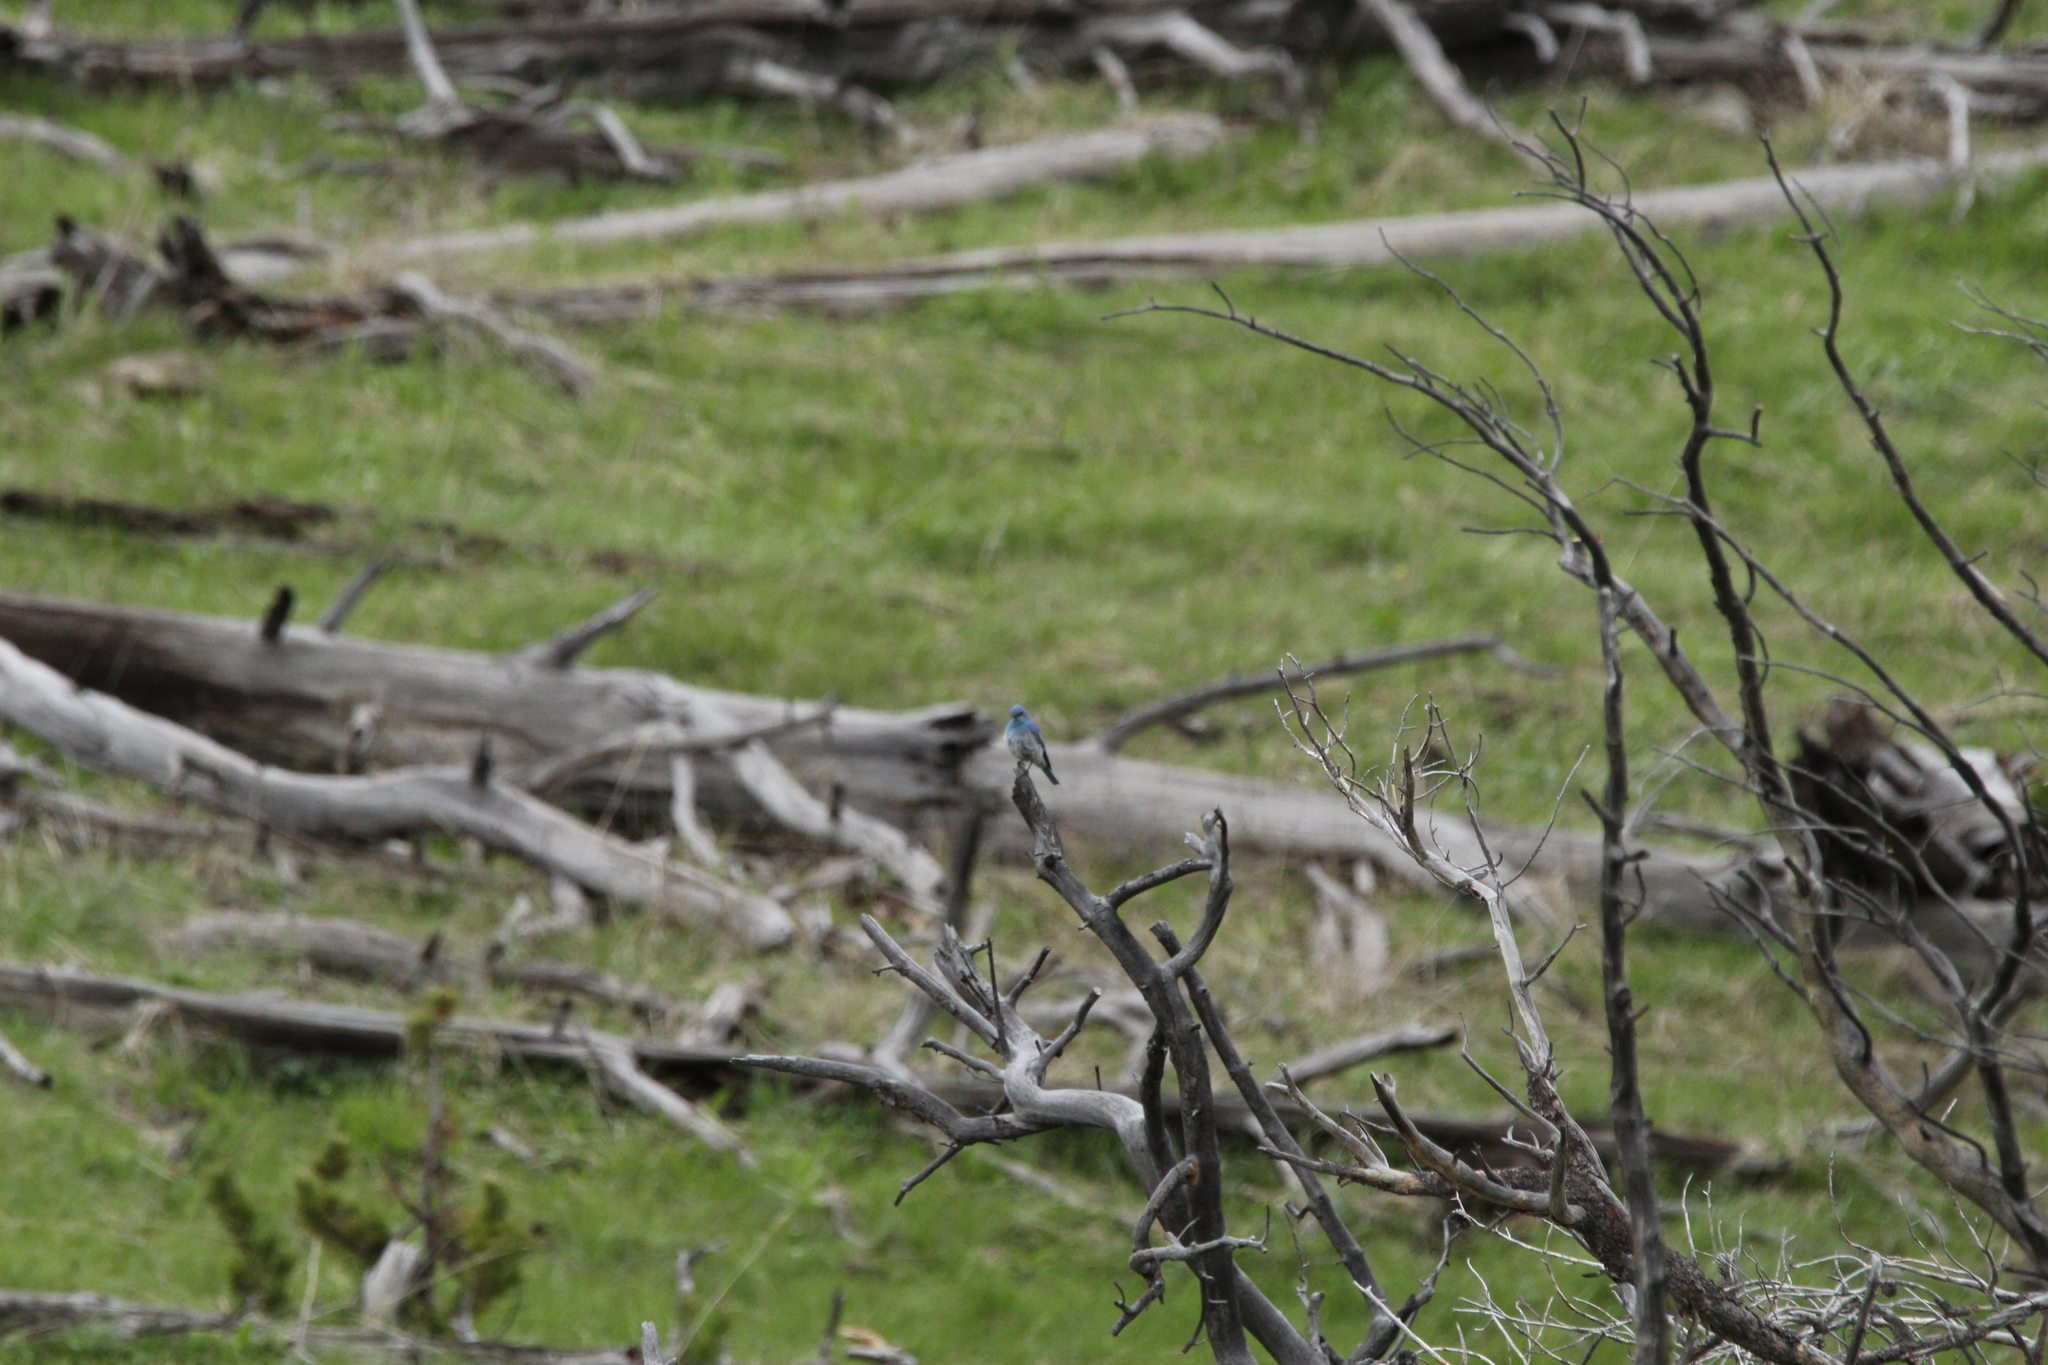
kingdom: Animalia
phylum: Chordata
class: Aves
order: Passeriformes
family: Turdidae
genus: Sialia
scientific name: Sialia currucoides
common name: Mountain bluebird
